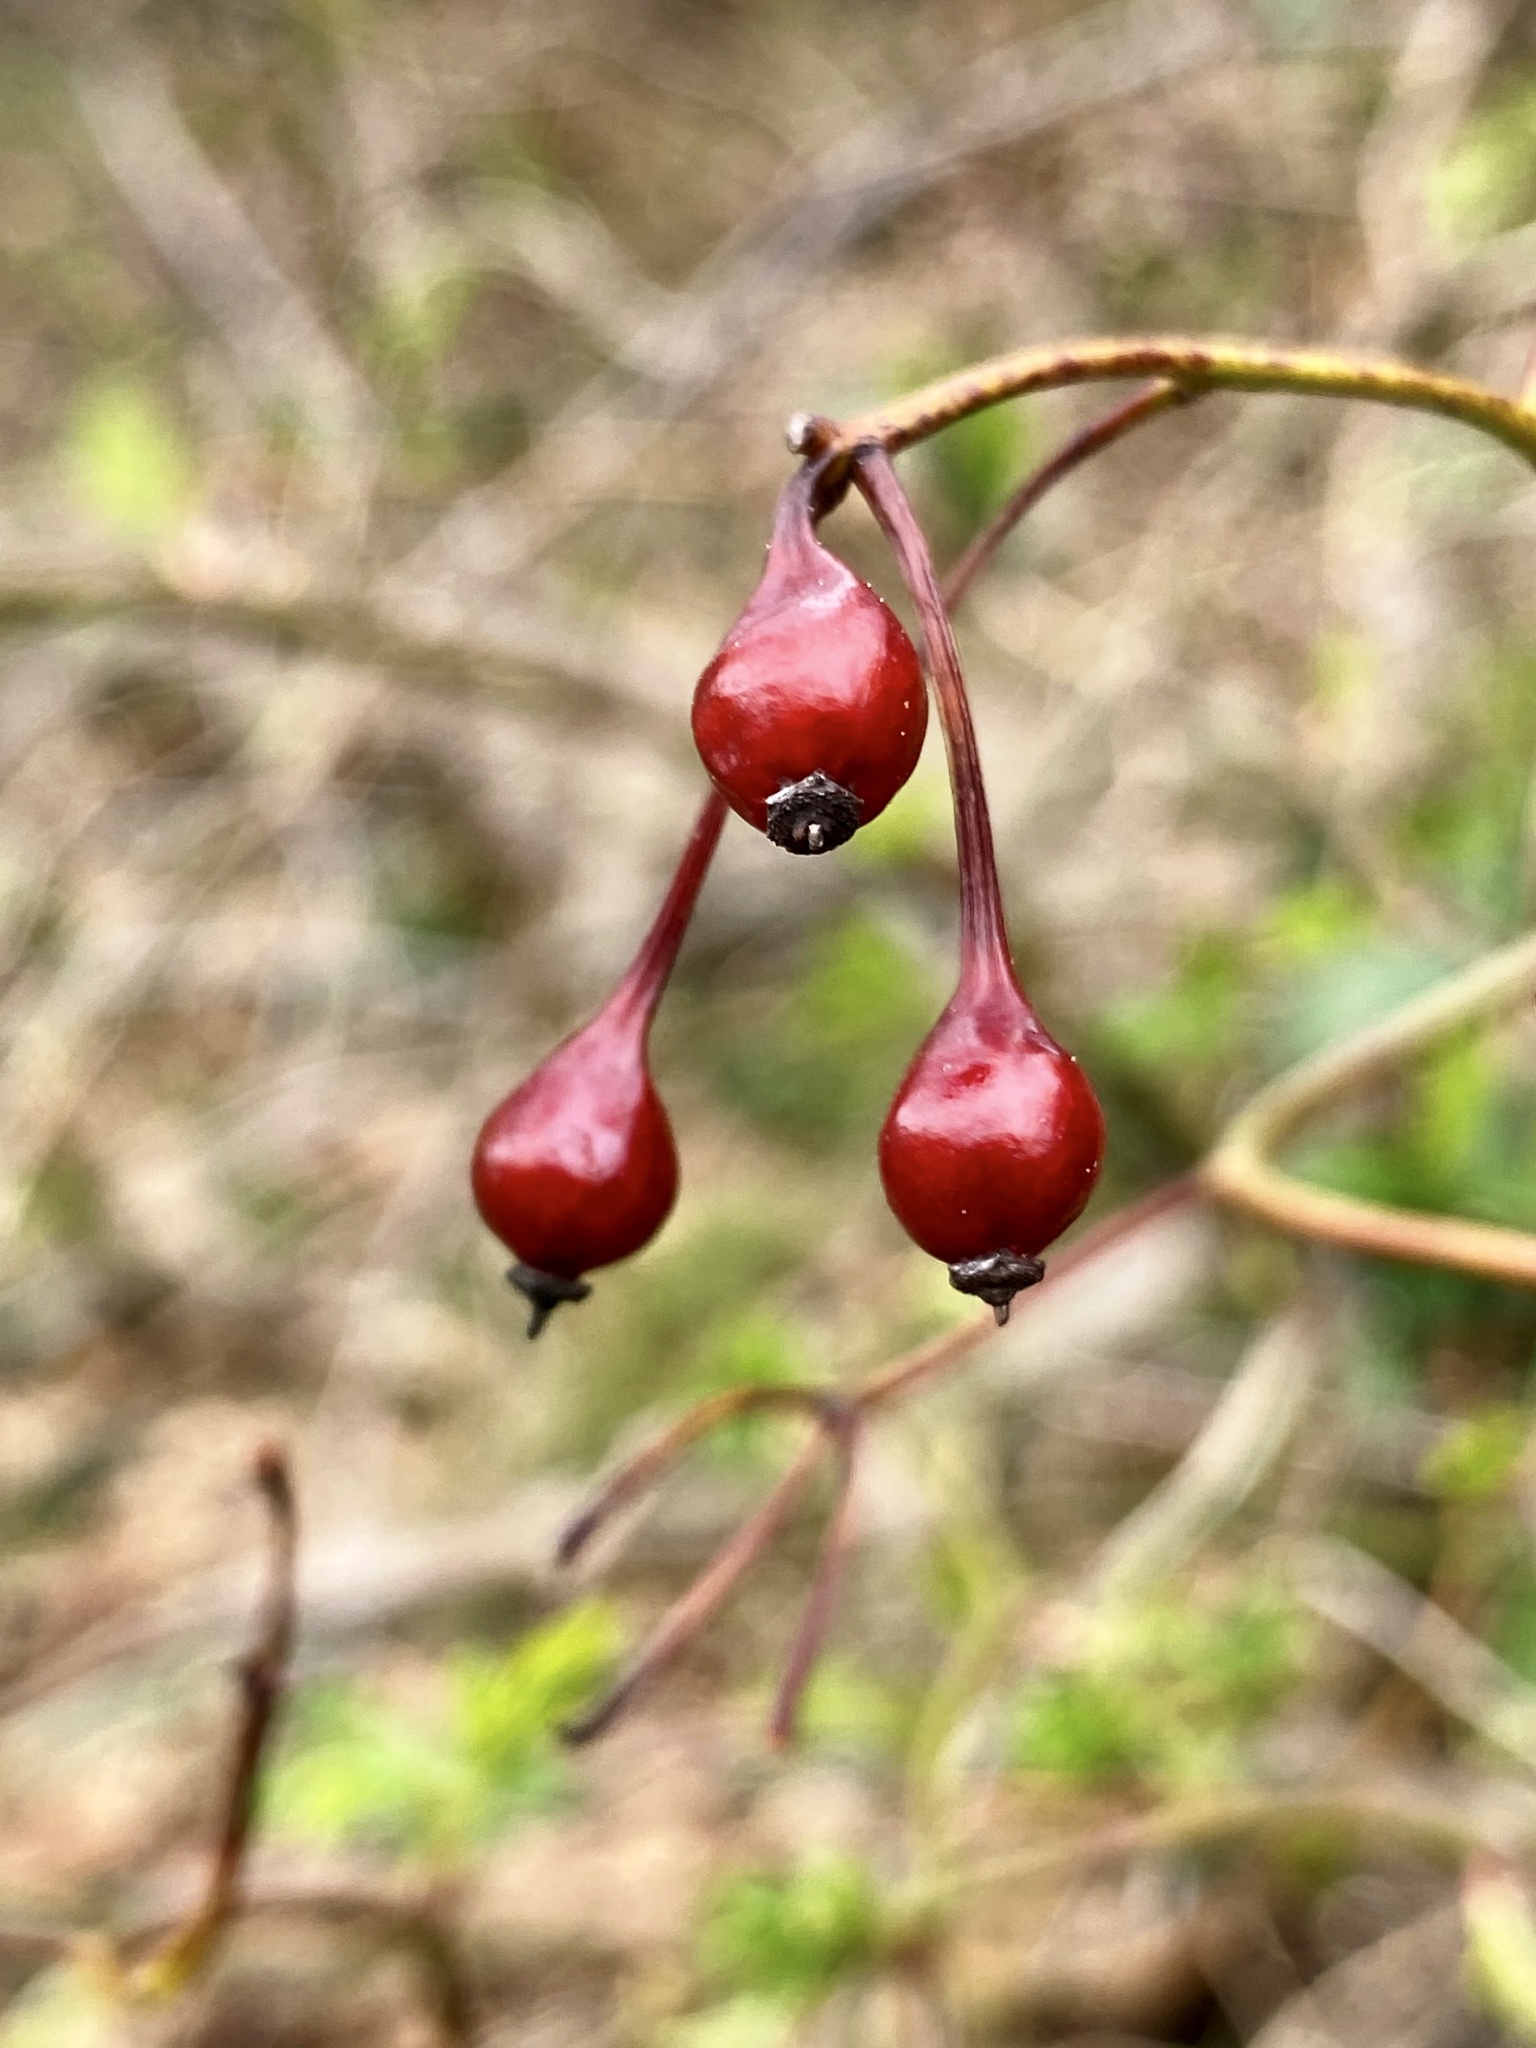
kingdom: Plantae
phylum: Tracheophyta
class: Magnoliopsida
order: Rosales
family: Rosaceae
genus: Rosa
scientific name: Rosa multiflora
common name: Multiflora rose
